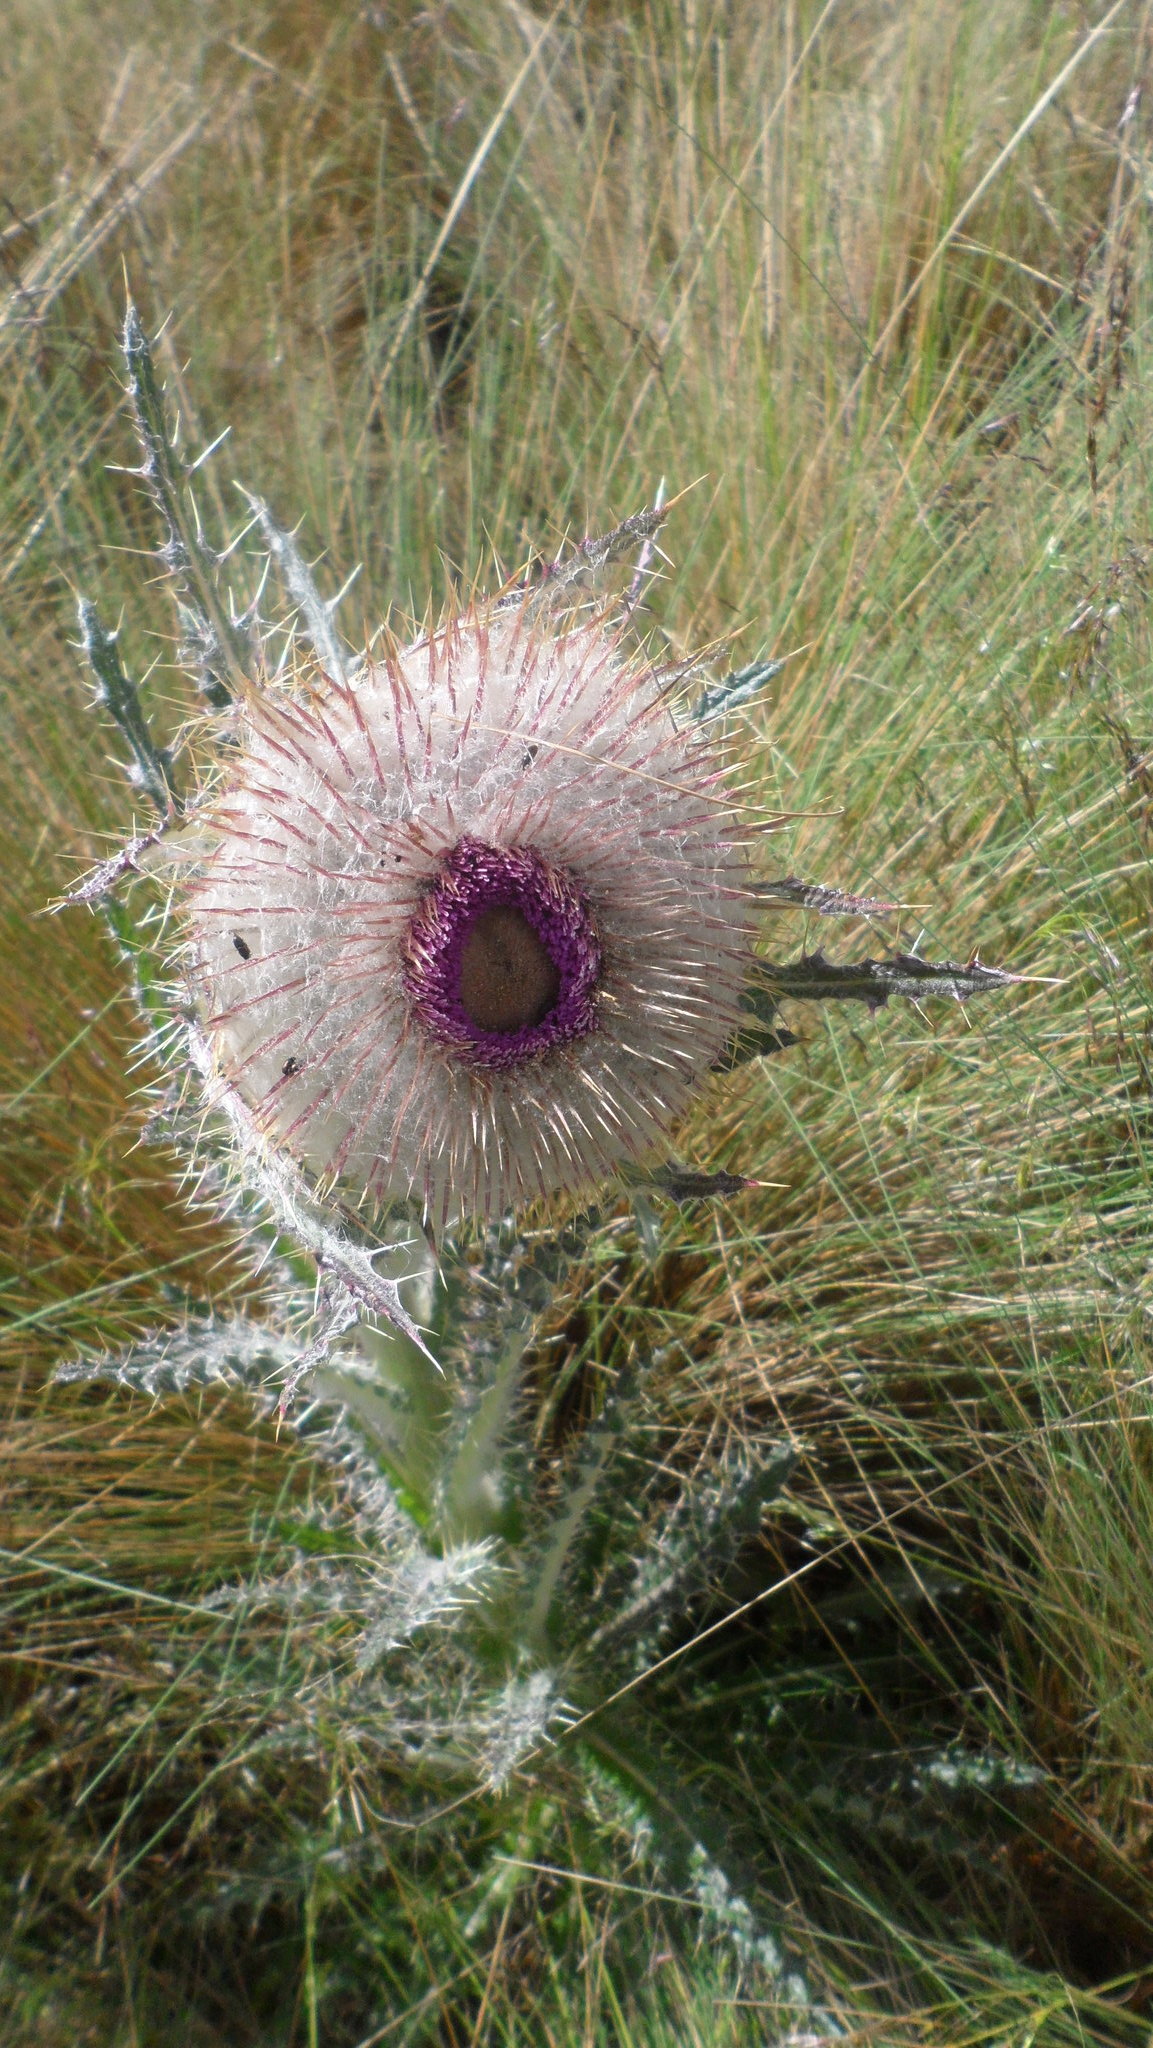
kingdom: Plantae
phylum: Tracheophyta
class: Magnoliopsida
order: Asterales
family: Asteraceae
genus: Cirsium
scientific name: Cirsium nivale
